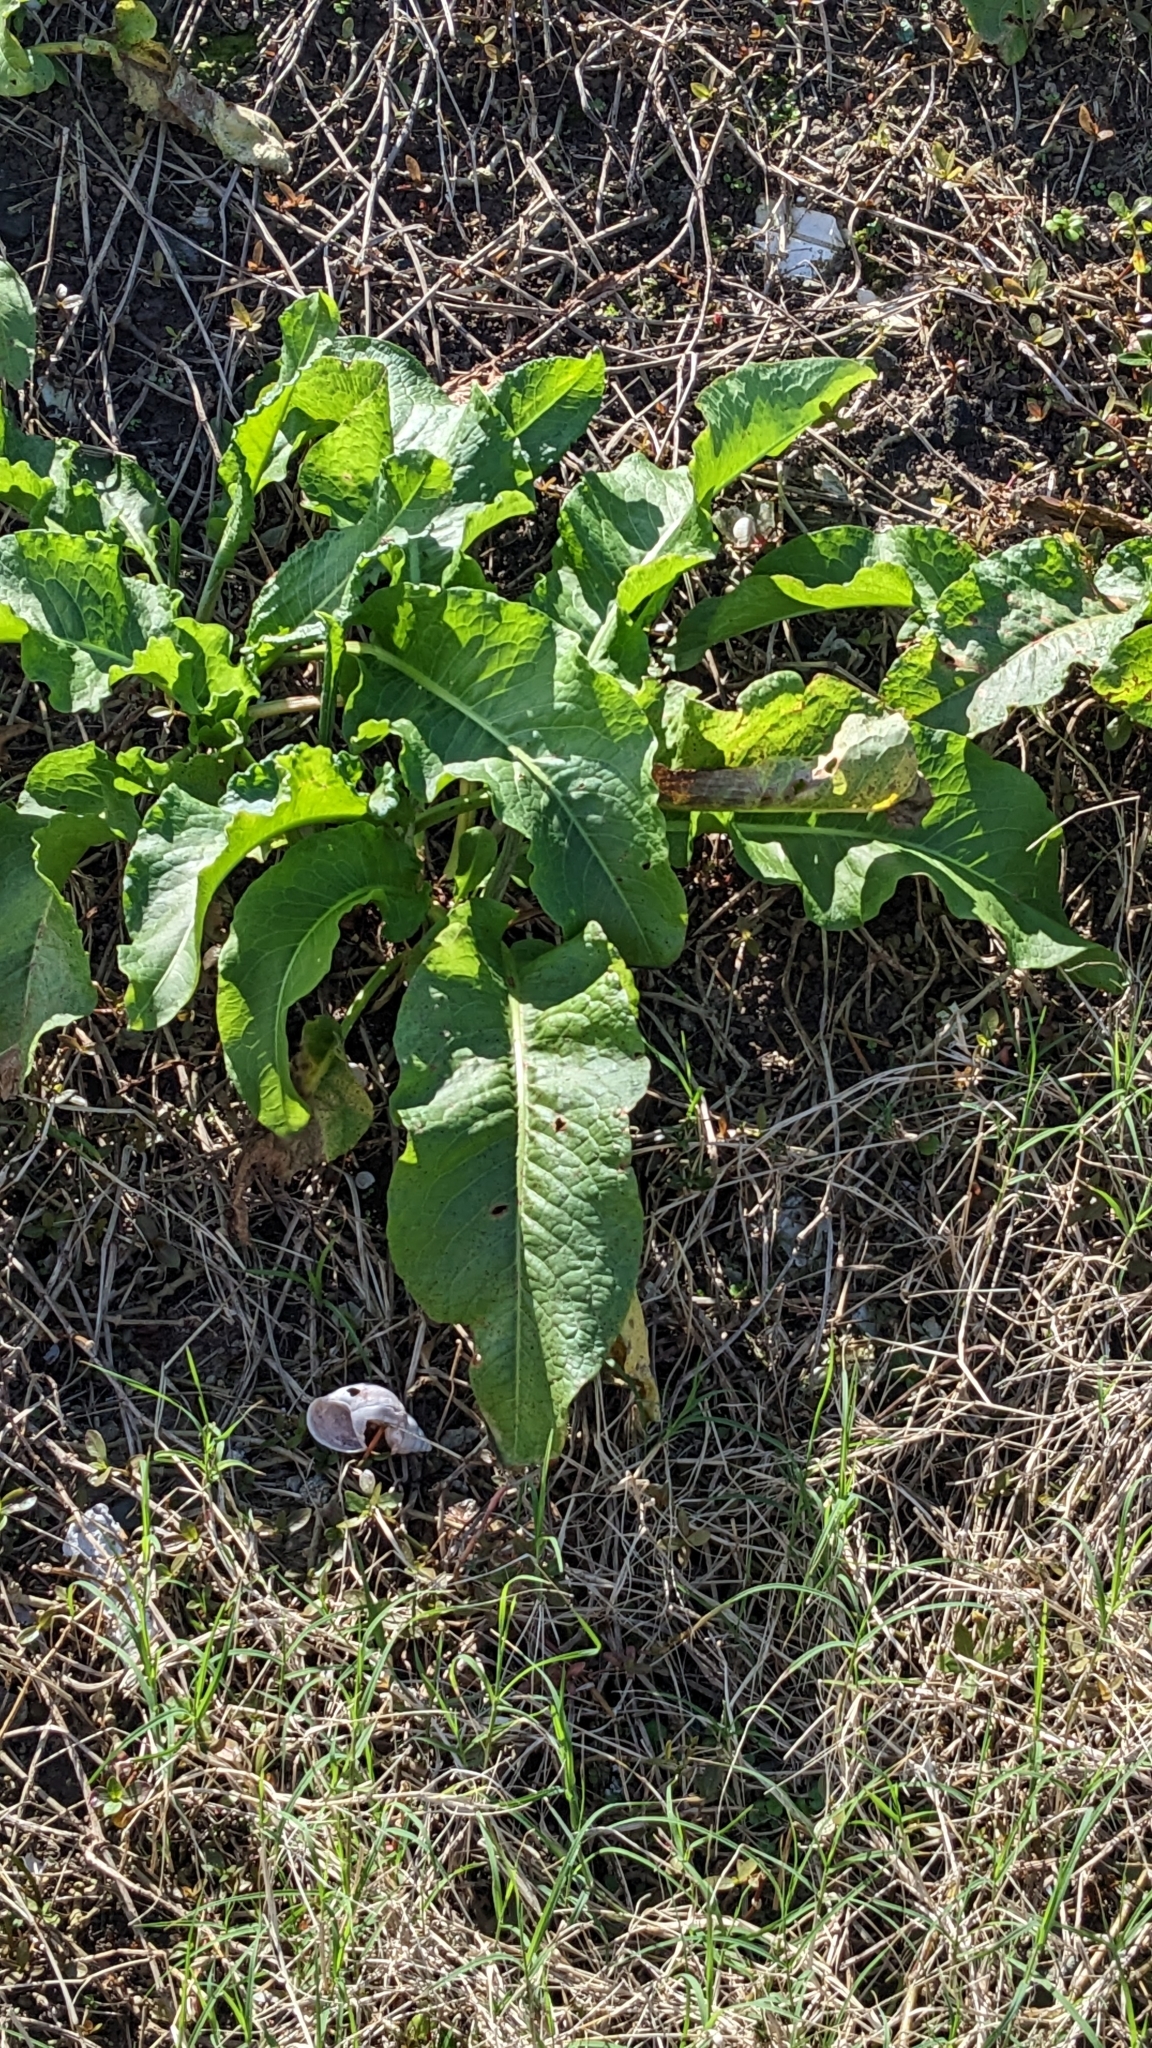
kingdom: Plantae
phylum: Tracheophyta
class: Magnoliopsida
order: Caryophyllales
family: Polygonaceae
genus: Rumex
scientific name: Rumex japonicus
